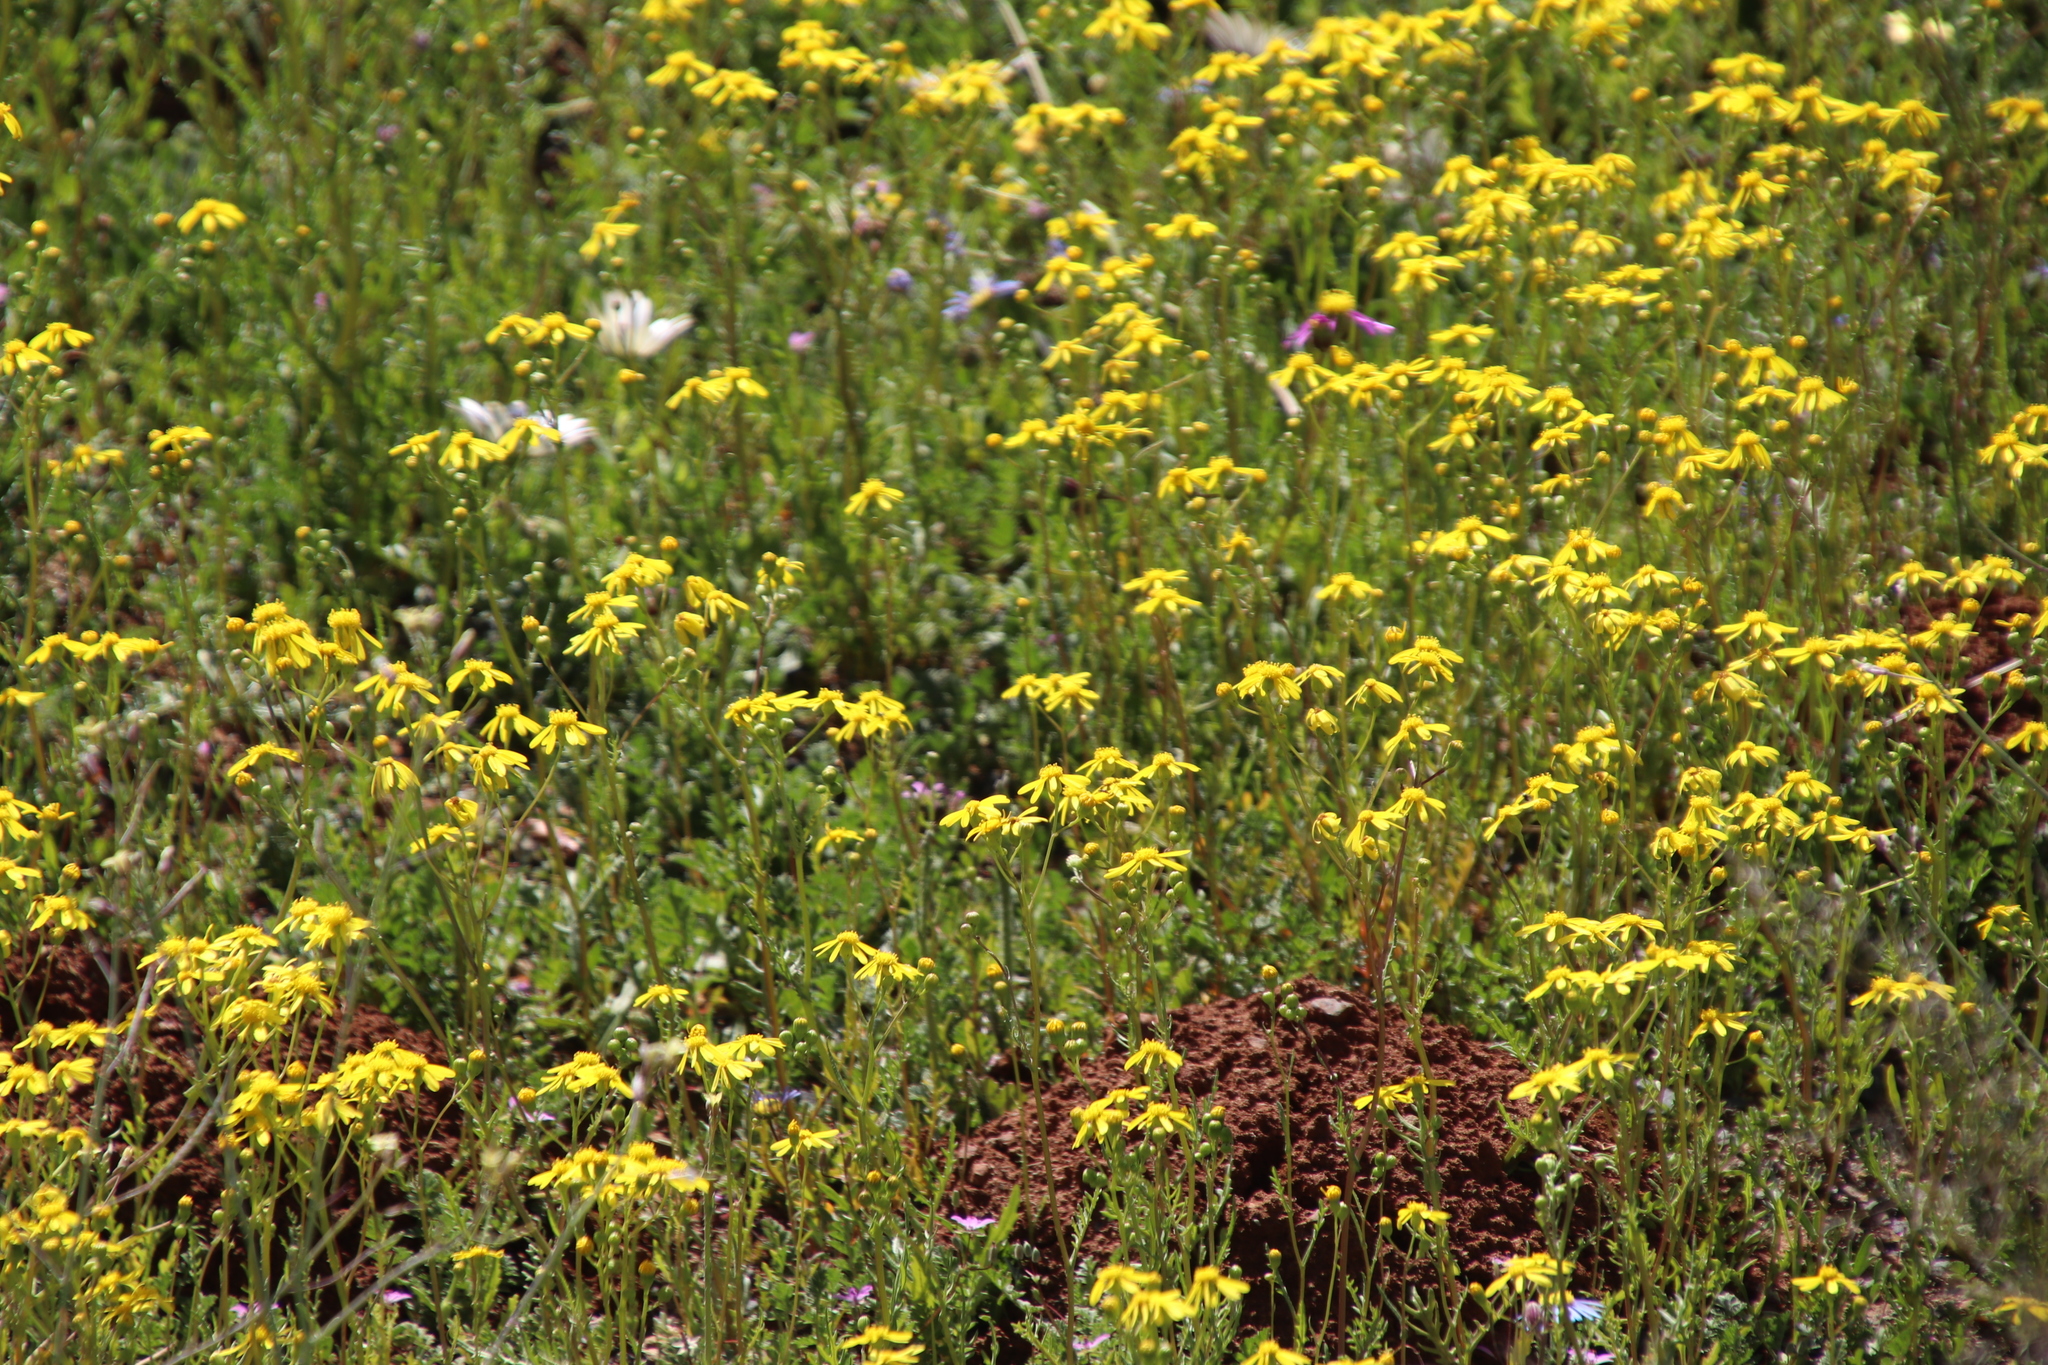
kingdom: Plantae
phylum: Tracheophyta
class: Magnoliopsida
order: Asterales
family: Asteraceae
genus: Senecio
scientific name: Senecio abruptus
